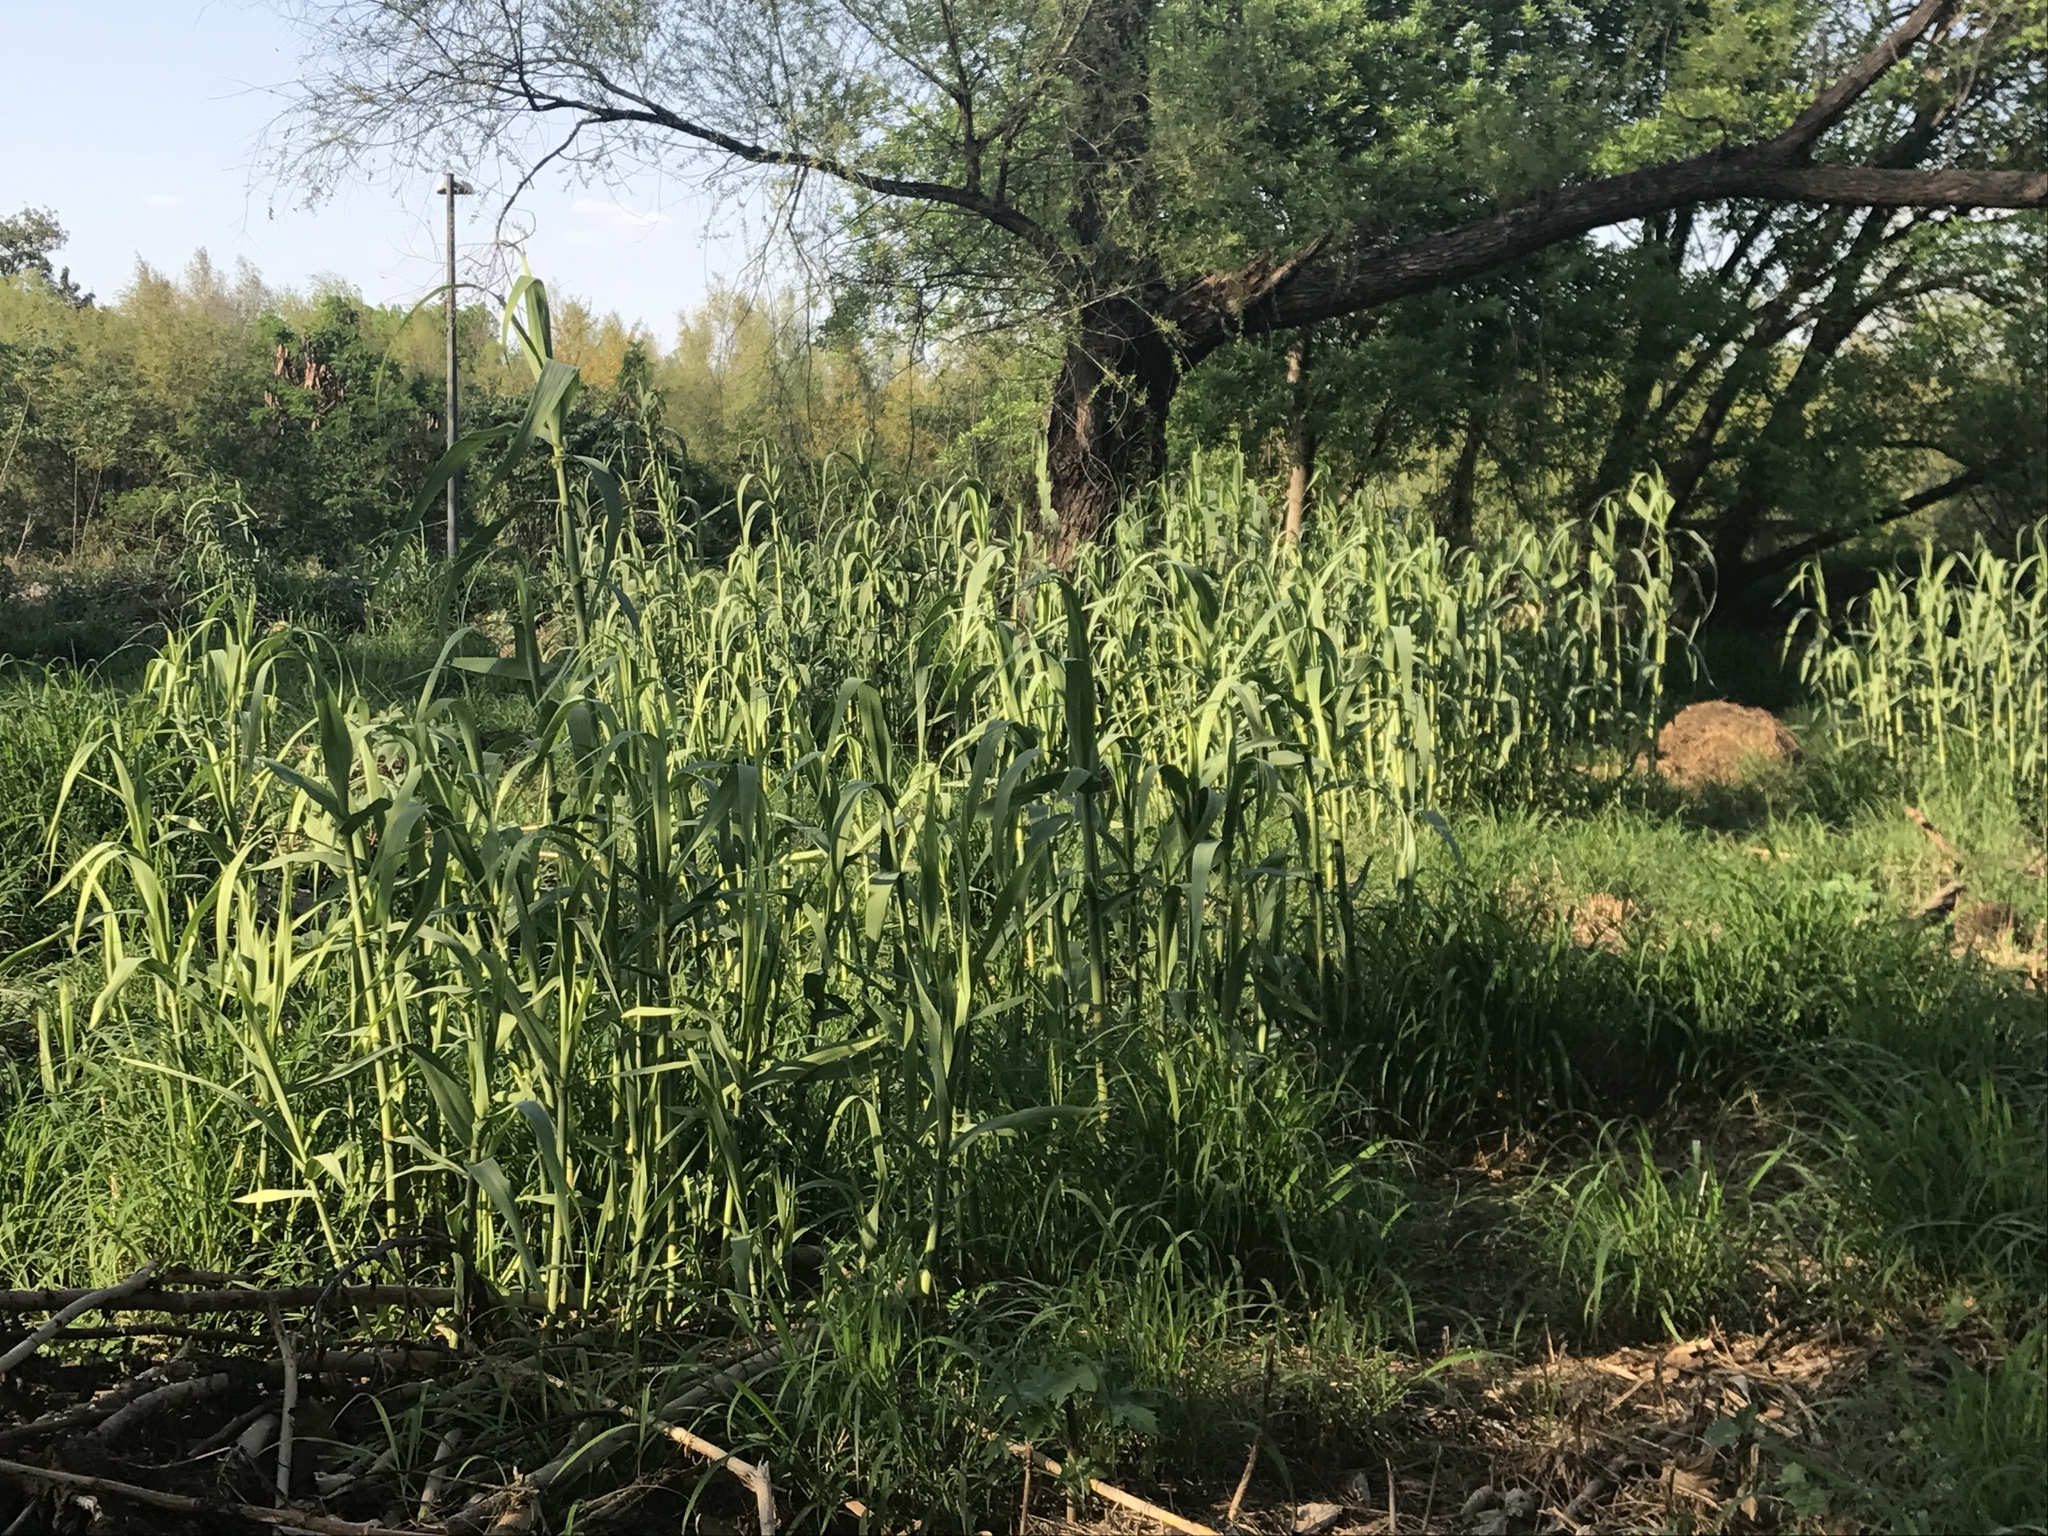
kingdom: Plantae
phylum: Tracheophyta
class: Liliopsida
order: Poales
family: Poaceae
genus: Arundo
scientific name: Arundo donax
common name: Giant reed
